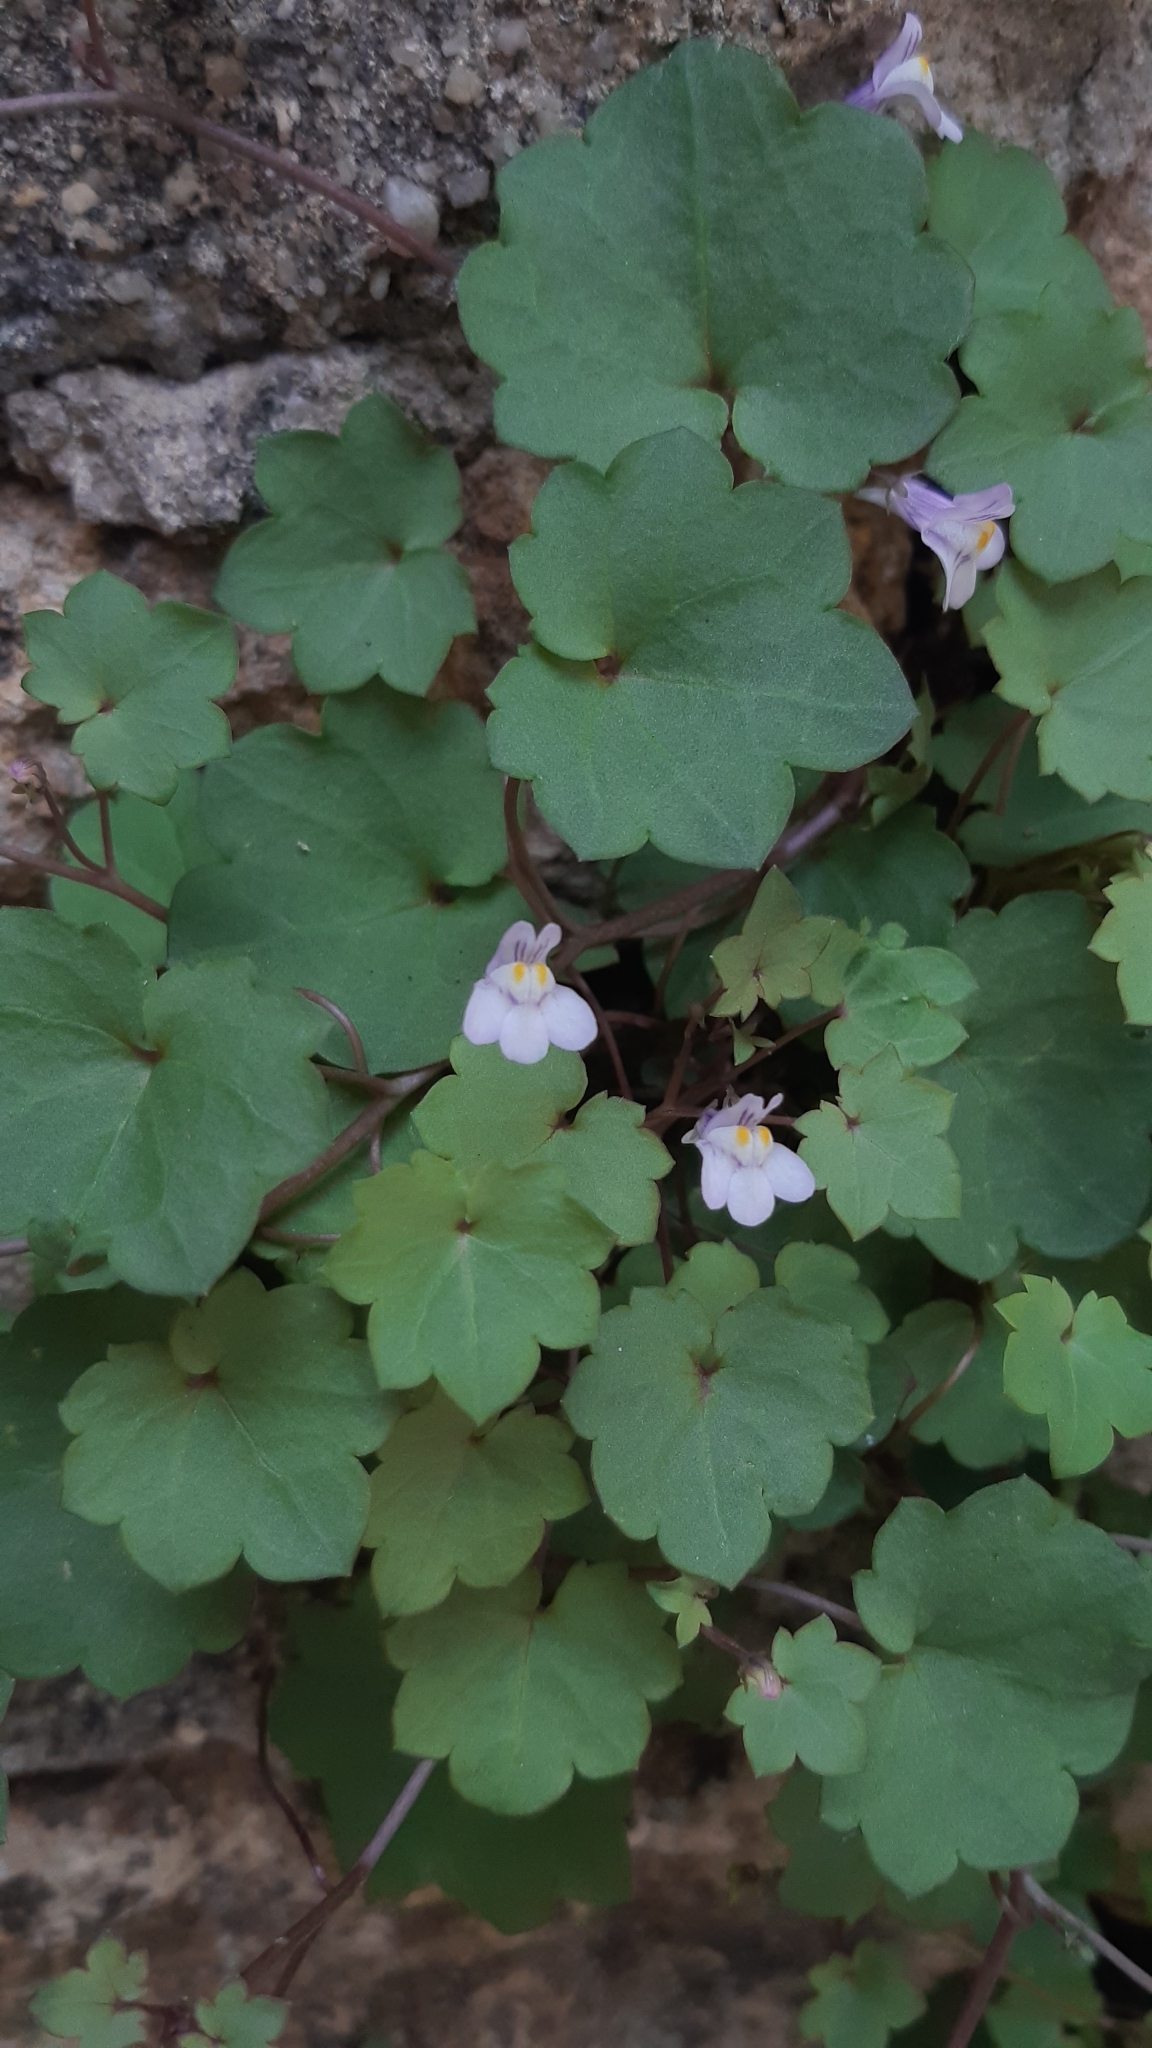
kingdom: Plantae
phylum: Tracheophyta
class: Magnoliopsida
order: Lamiales
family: Plantaginaceae
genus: Cymbalaria
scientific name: Cymbalaria muralis
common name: Ivy-leaved toadflax
